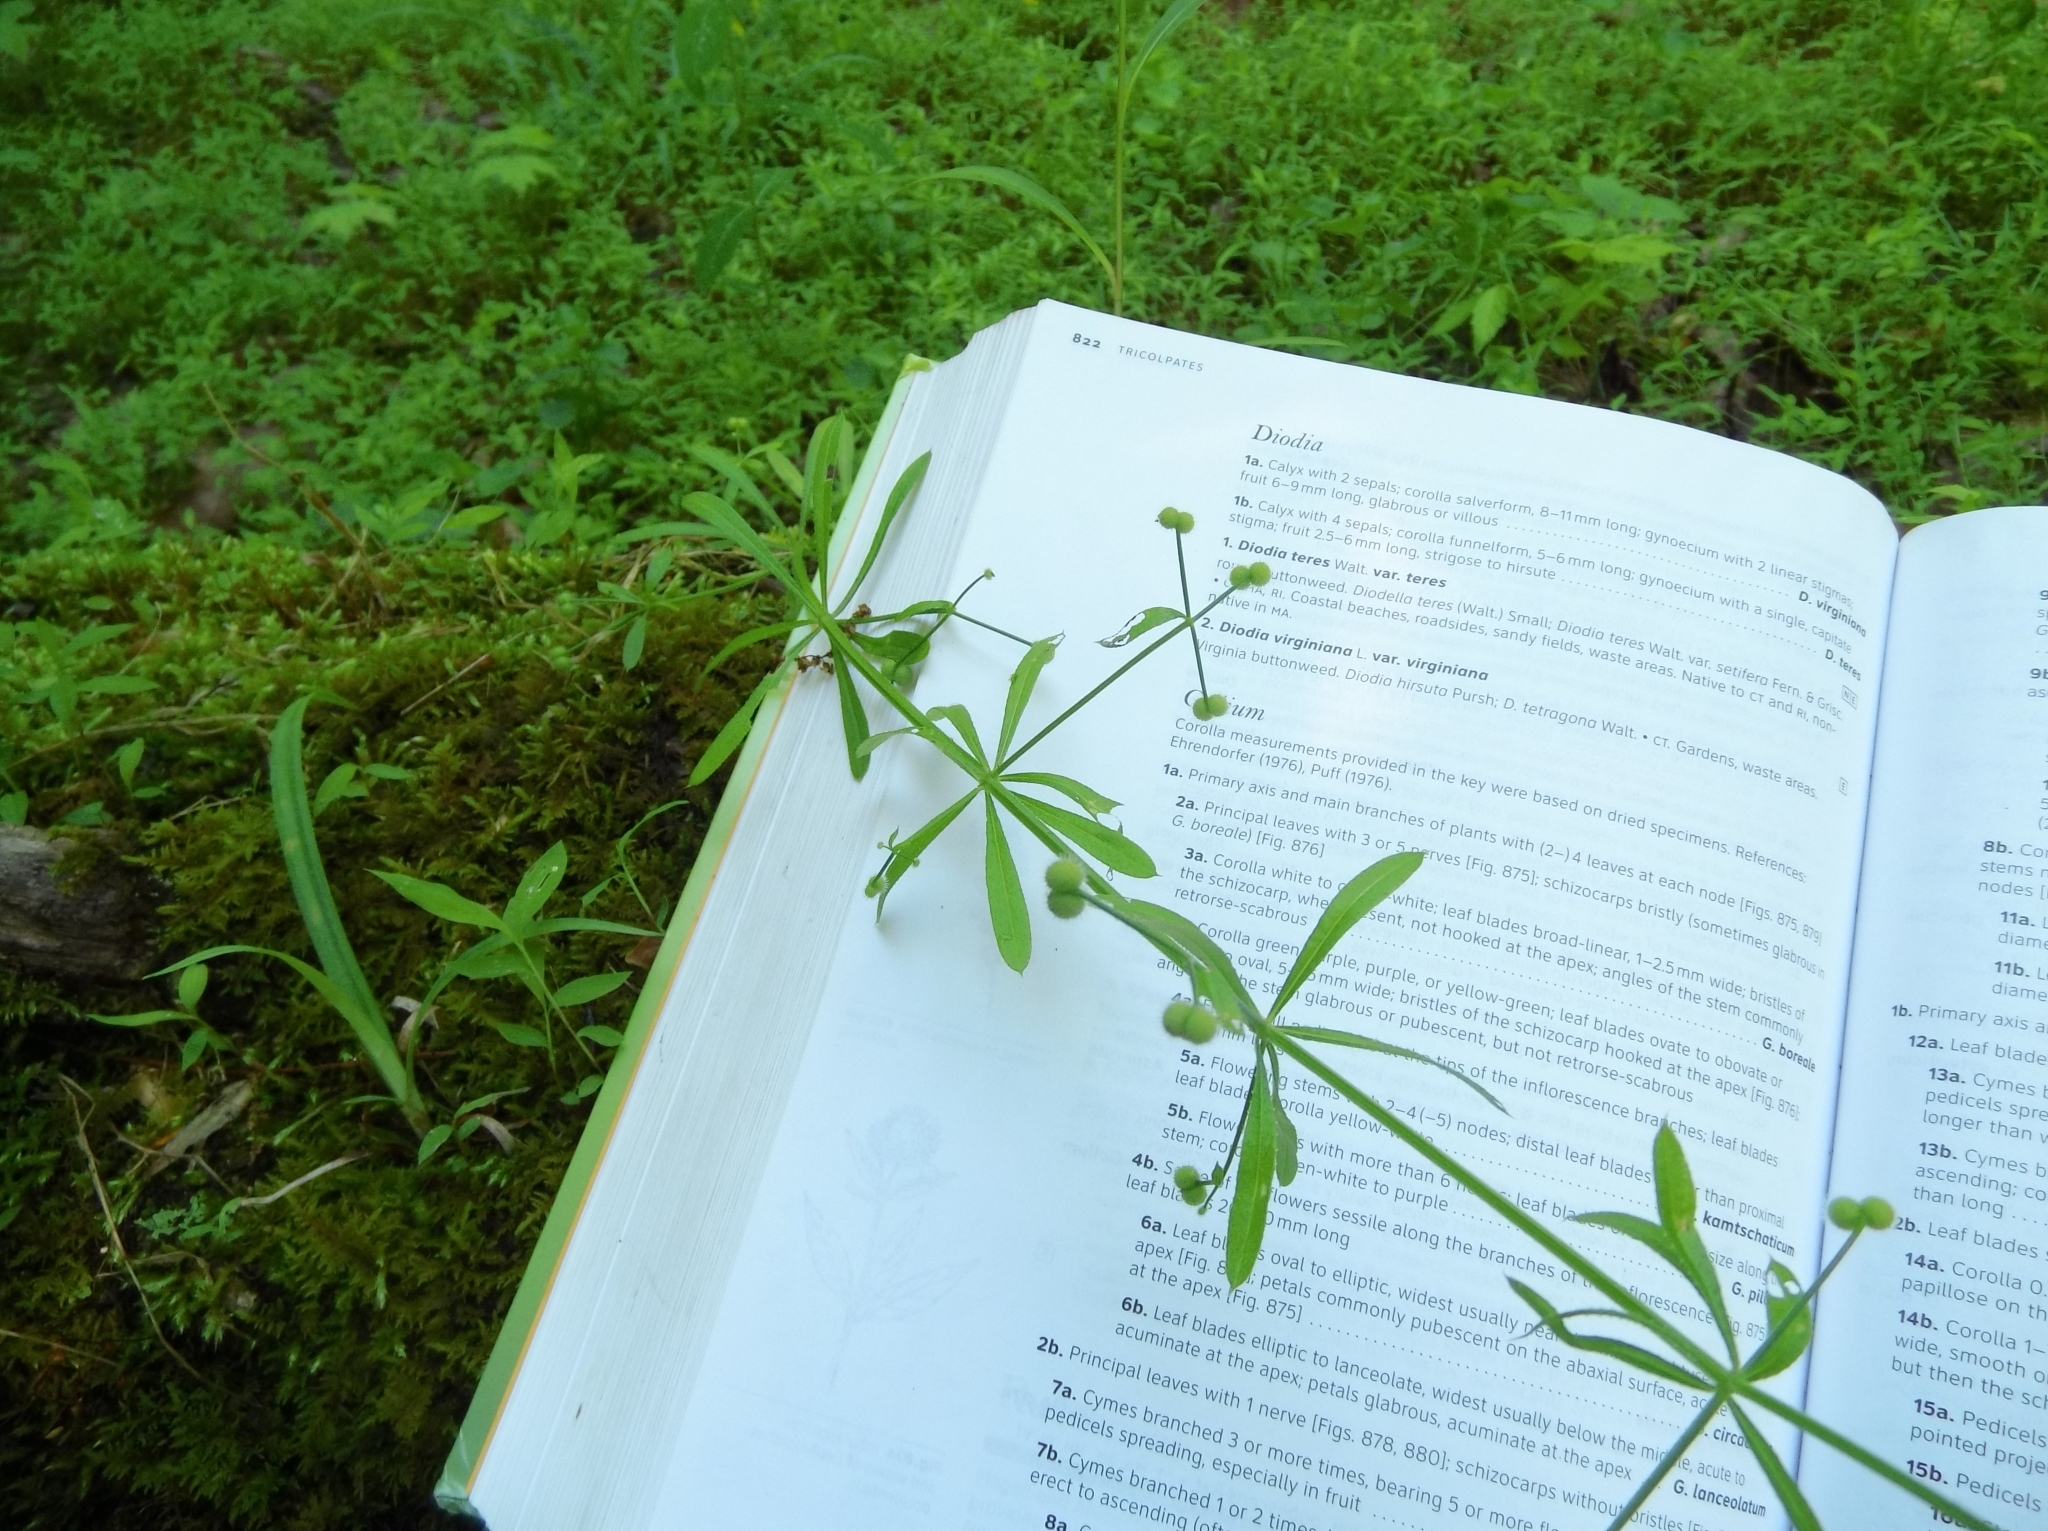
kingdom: Plantae
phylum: Tracheophyta
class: Magnoliopsida
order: Gentianales
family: Rubiaceae
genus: Galium
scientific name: Galium aparine
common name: Cleavers
